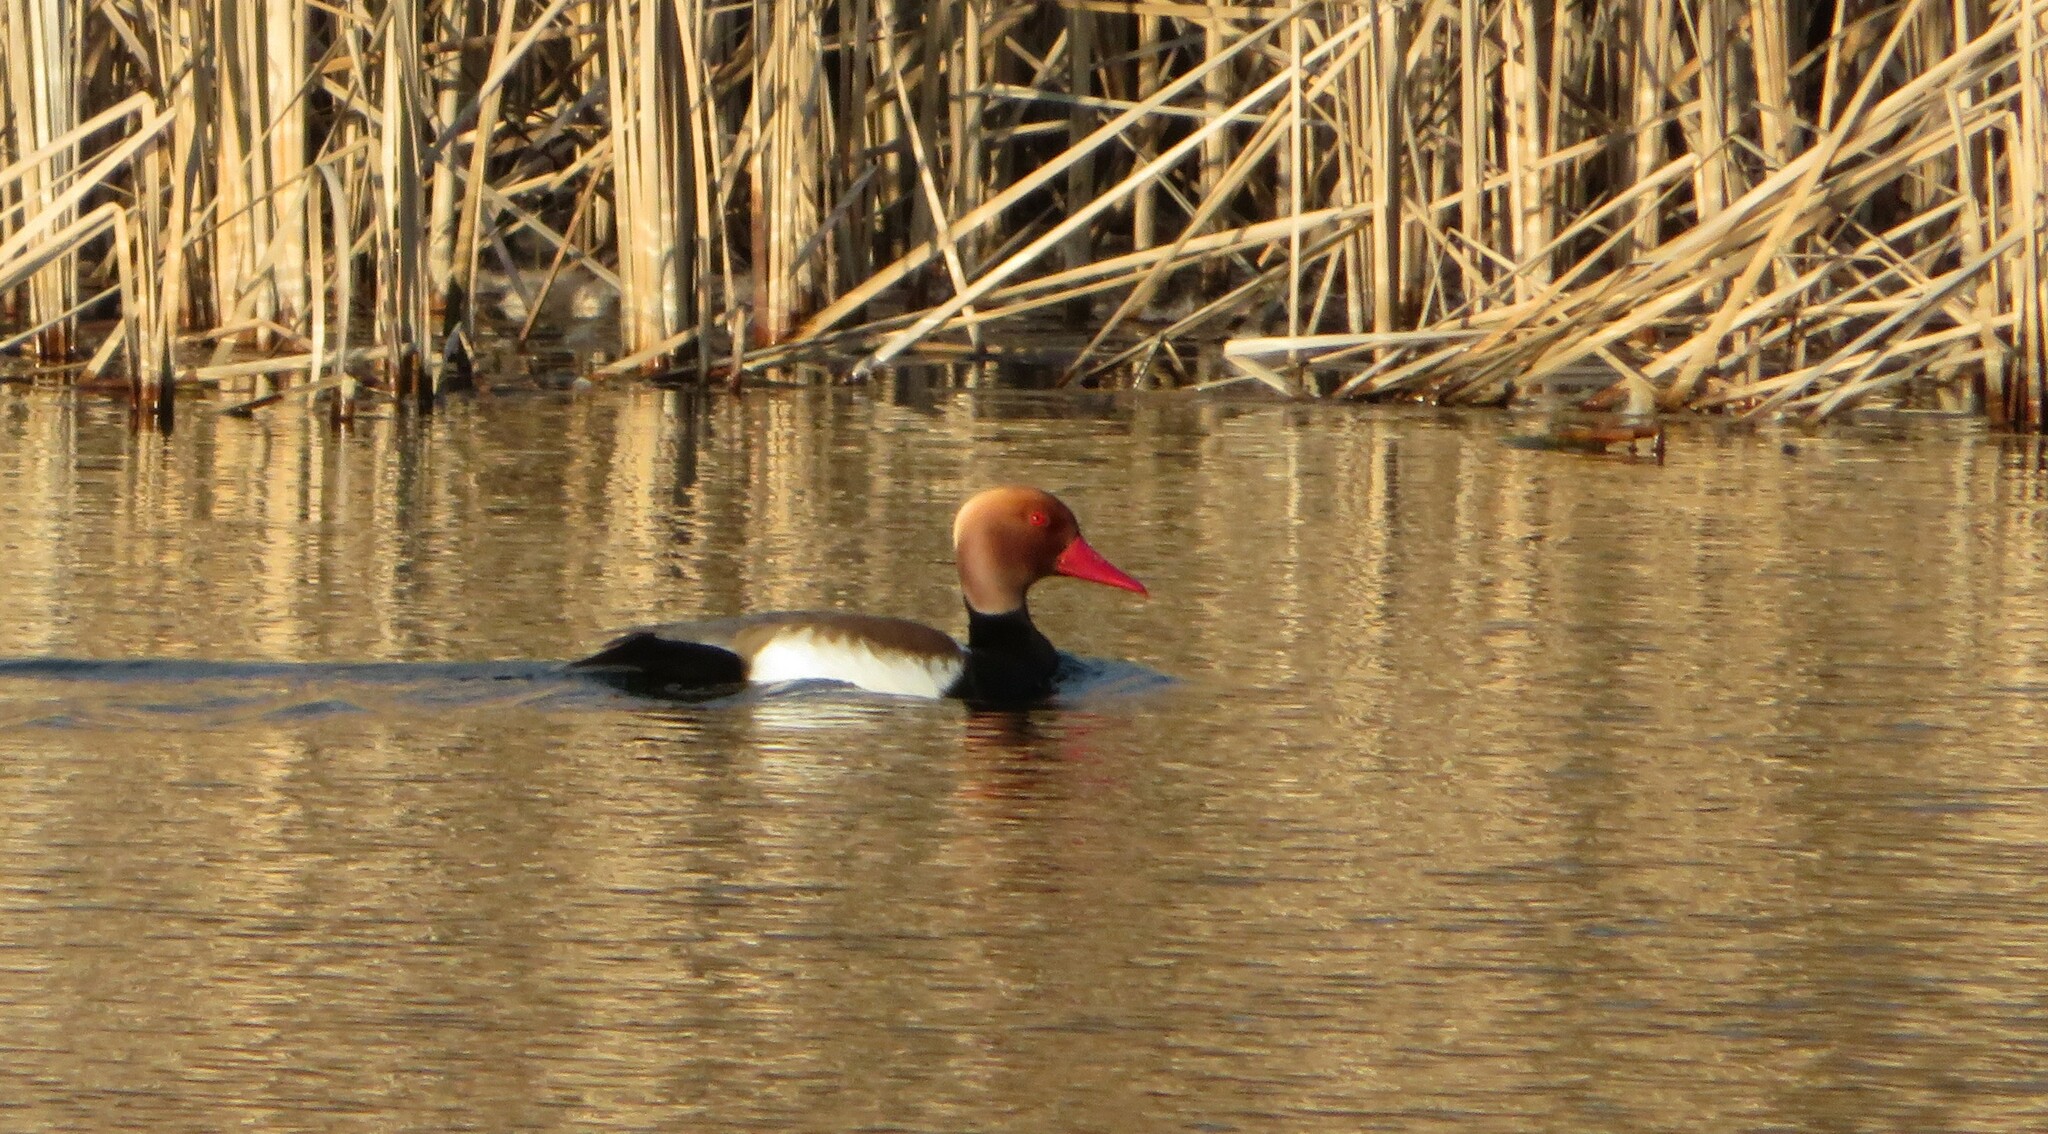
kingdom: Animalia
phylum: Chordata
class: Aves
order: Anseriformes
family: Anatidae
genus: Netta
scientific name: Netta rufina
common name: Red-crested pochard
